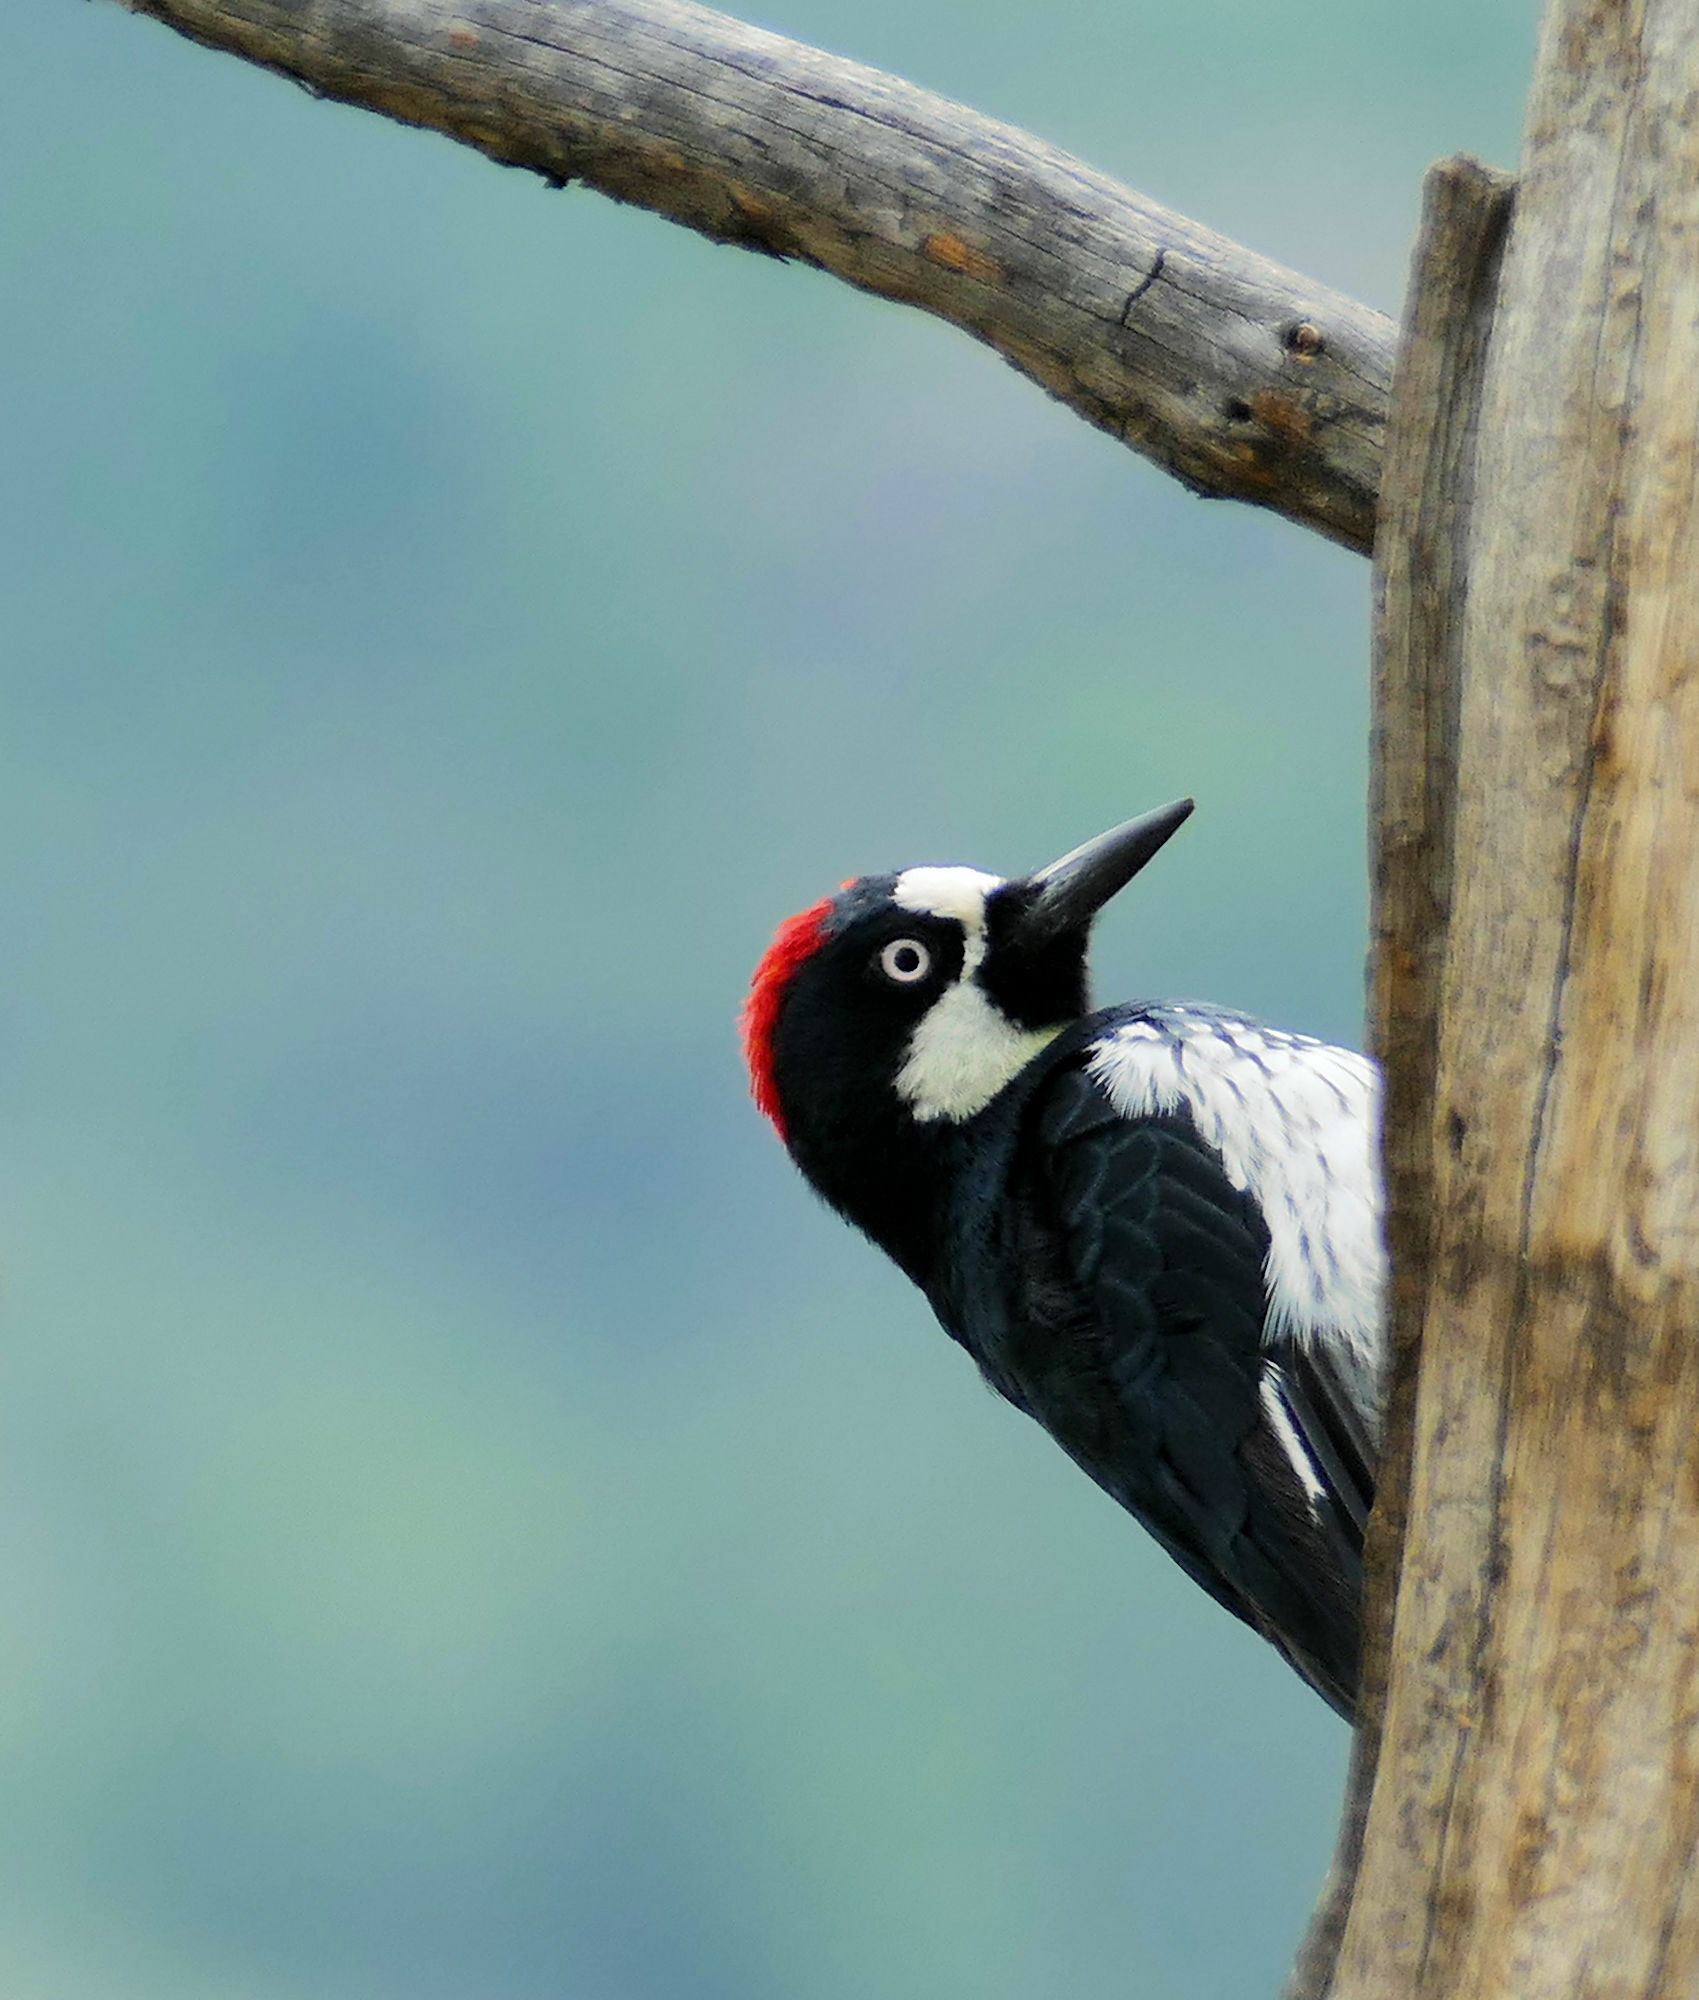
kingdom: Animalia
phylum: Chordata
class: Aves
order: Piciformes
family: Picidae
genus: Melanerpes
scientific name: Melanerpes formicivorus
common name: Acorn woodpecker
